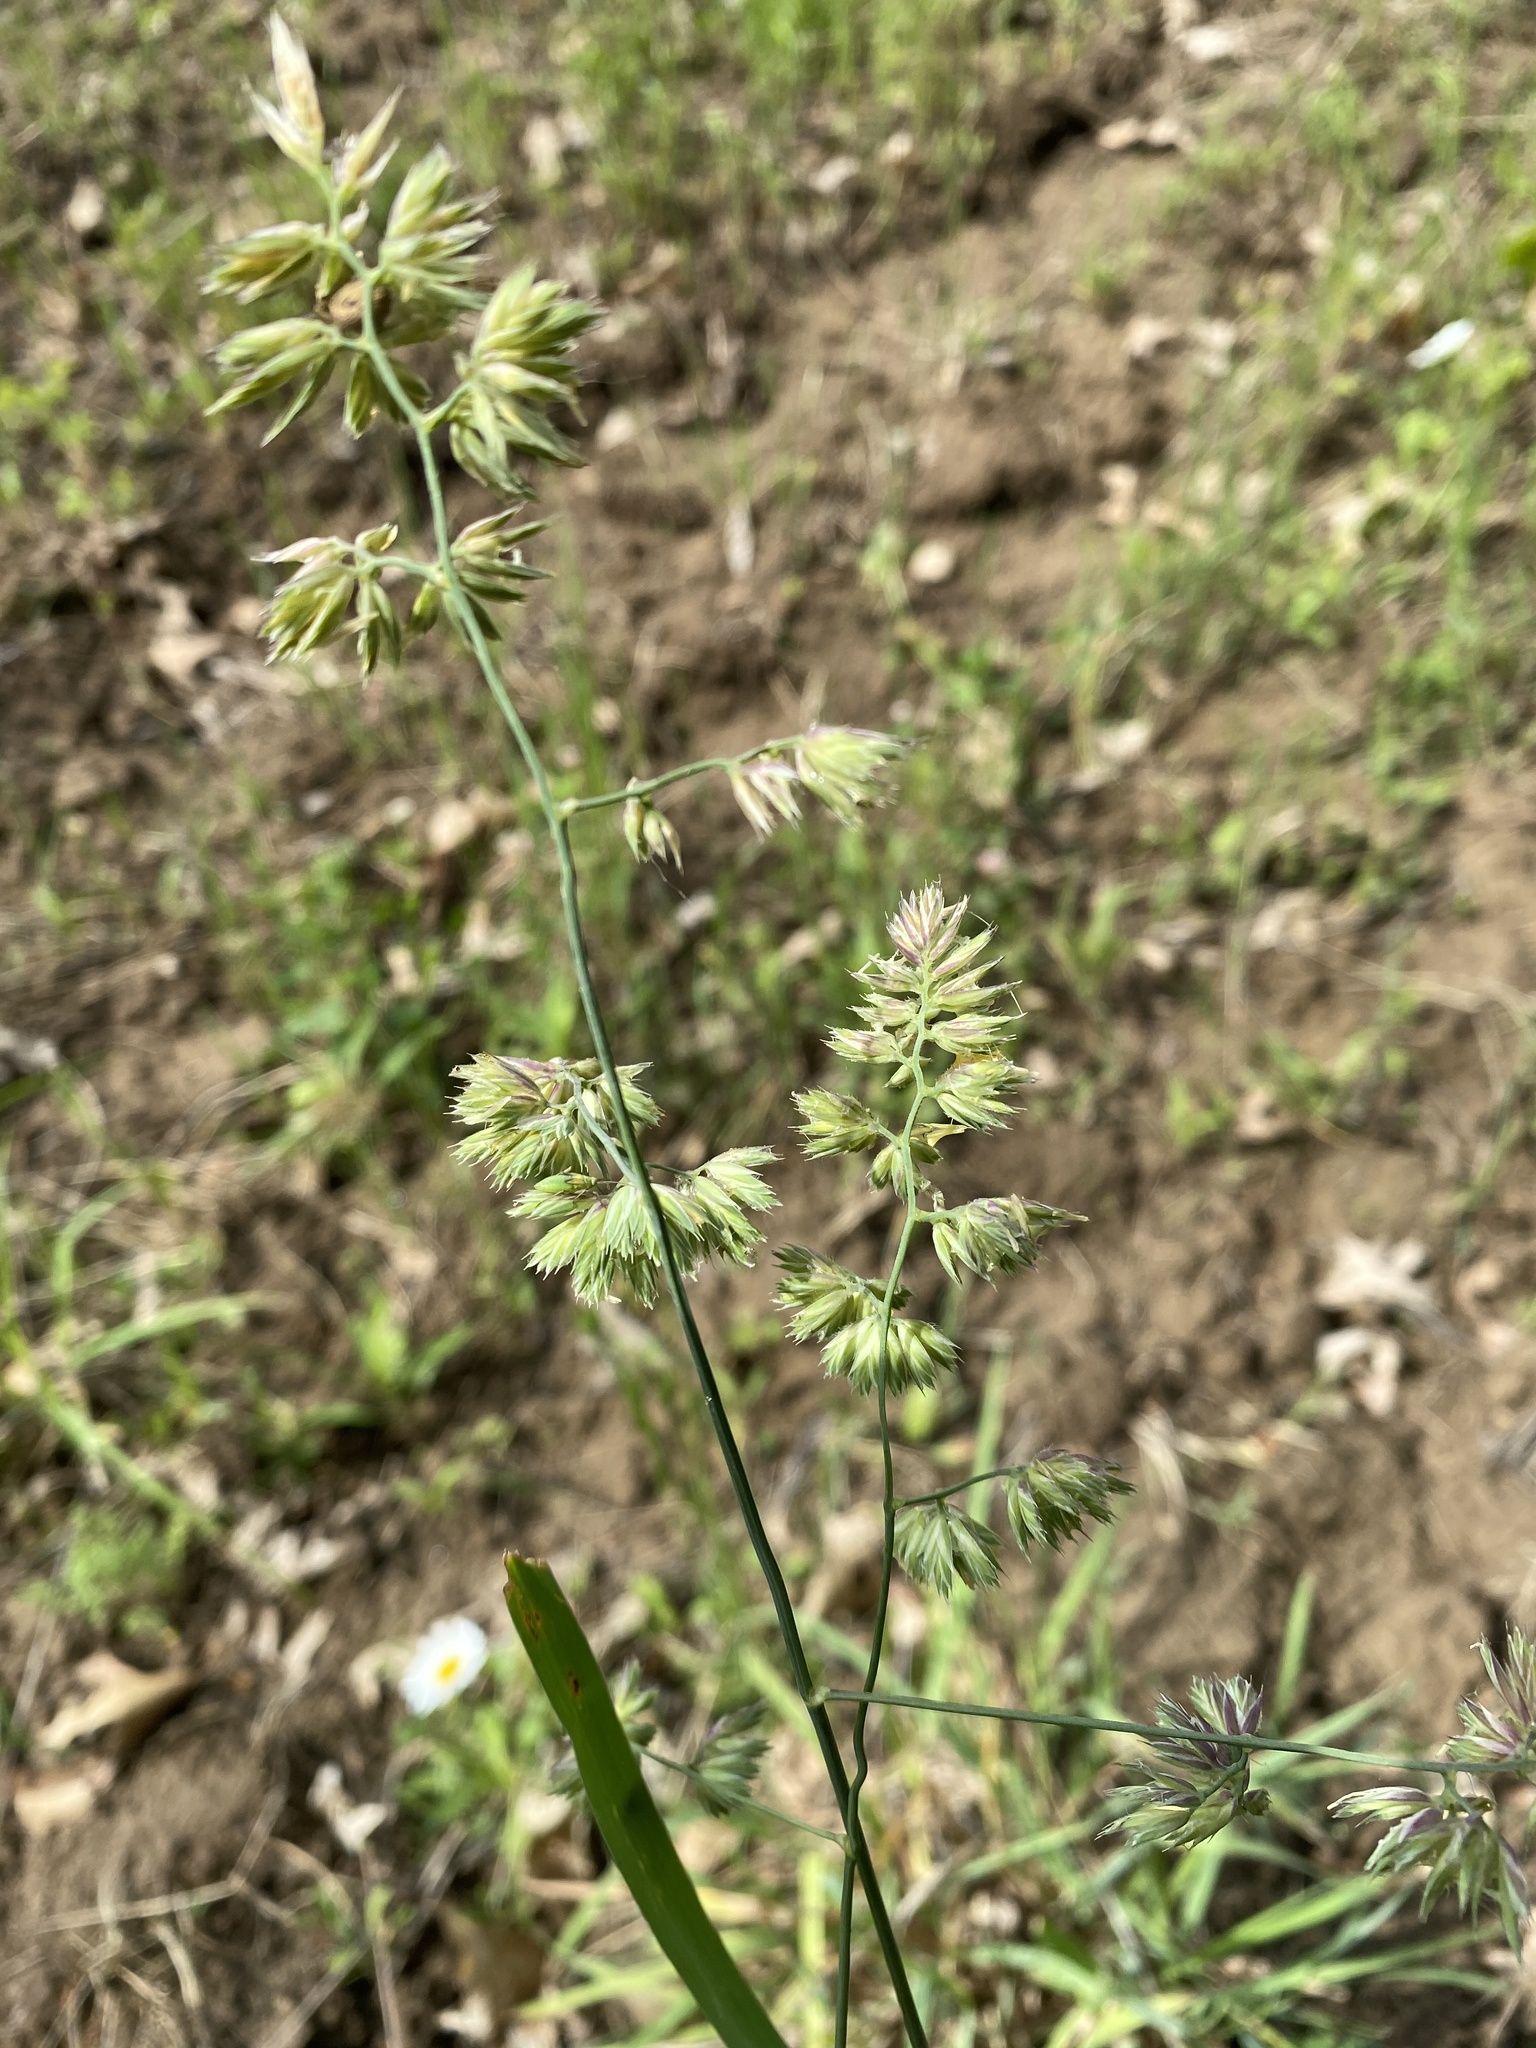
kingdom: Plantae
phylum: Tracheophyta
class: Liliopsida
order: Poales
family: Poaceae
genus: Dactylis
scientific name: Dactylis glomerata
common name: Orchardgrass
